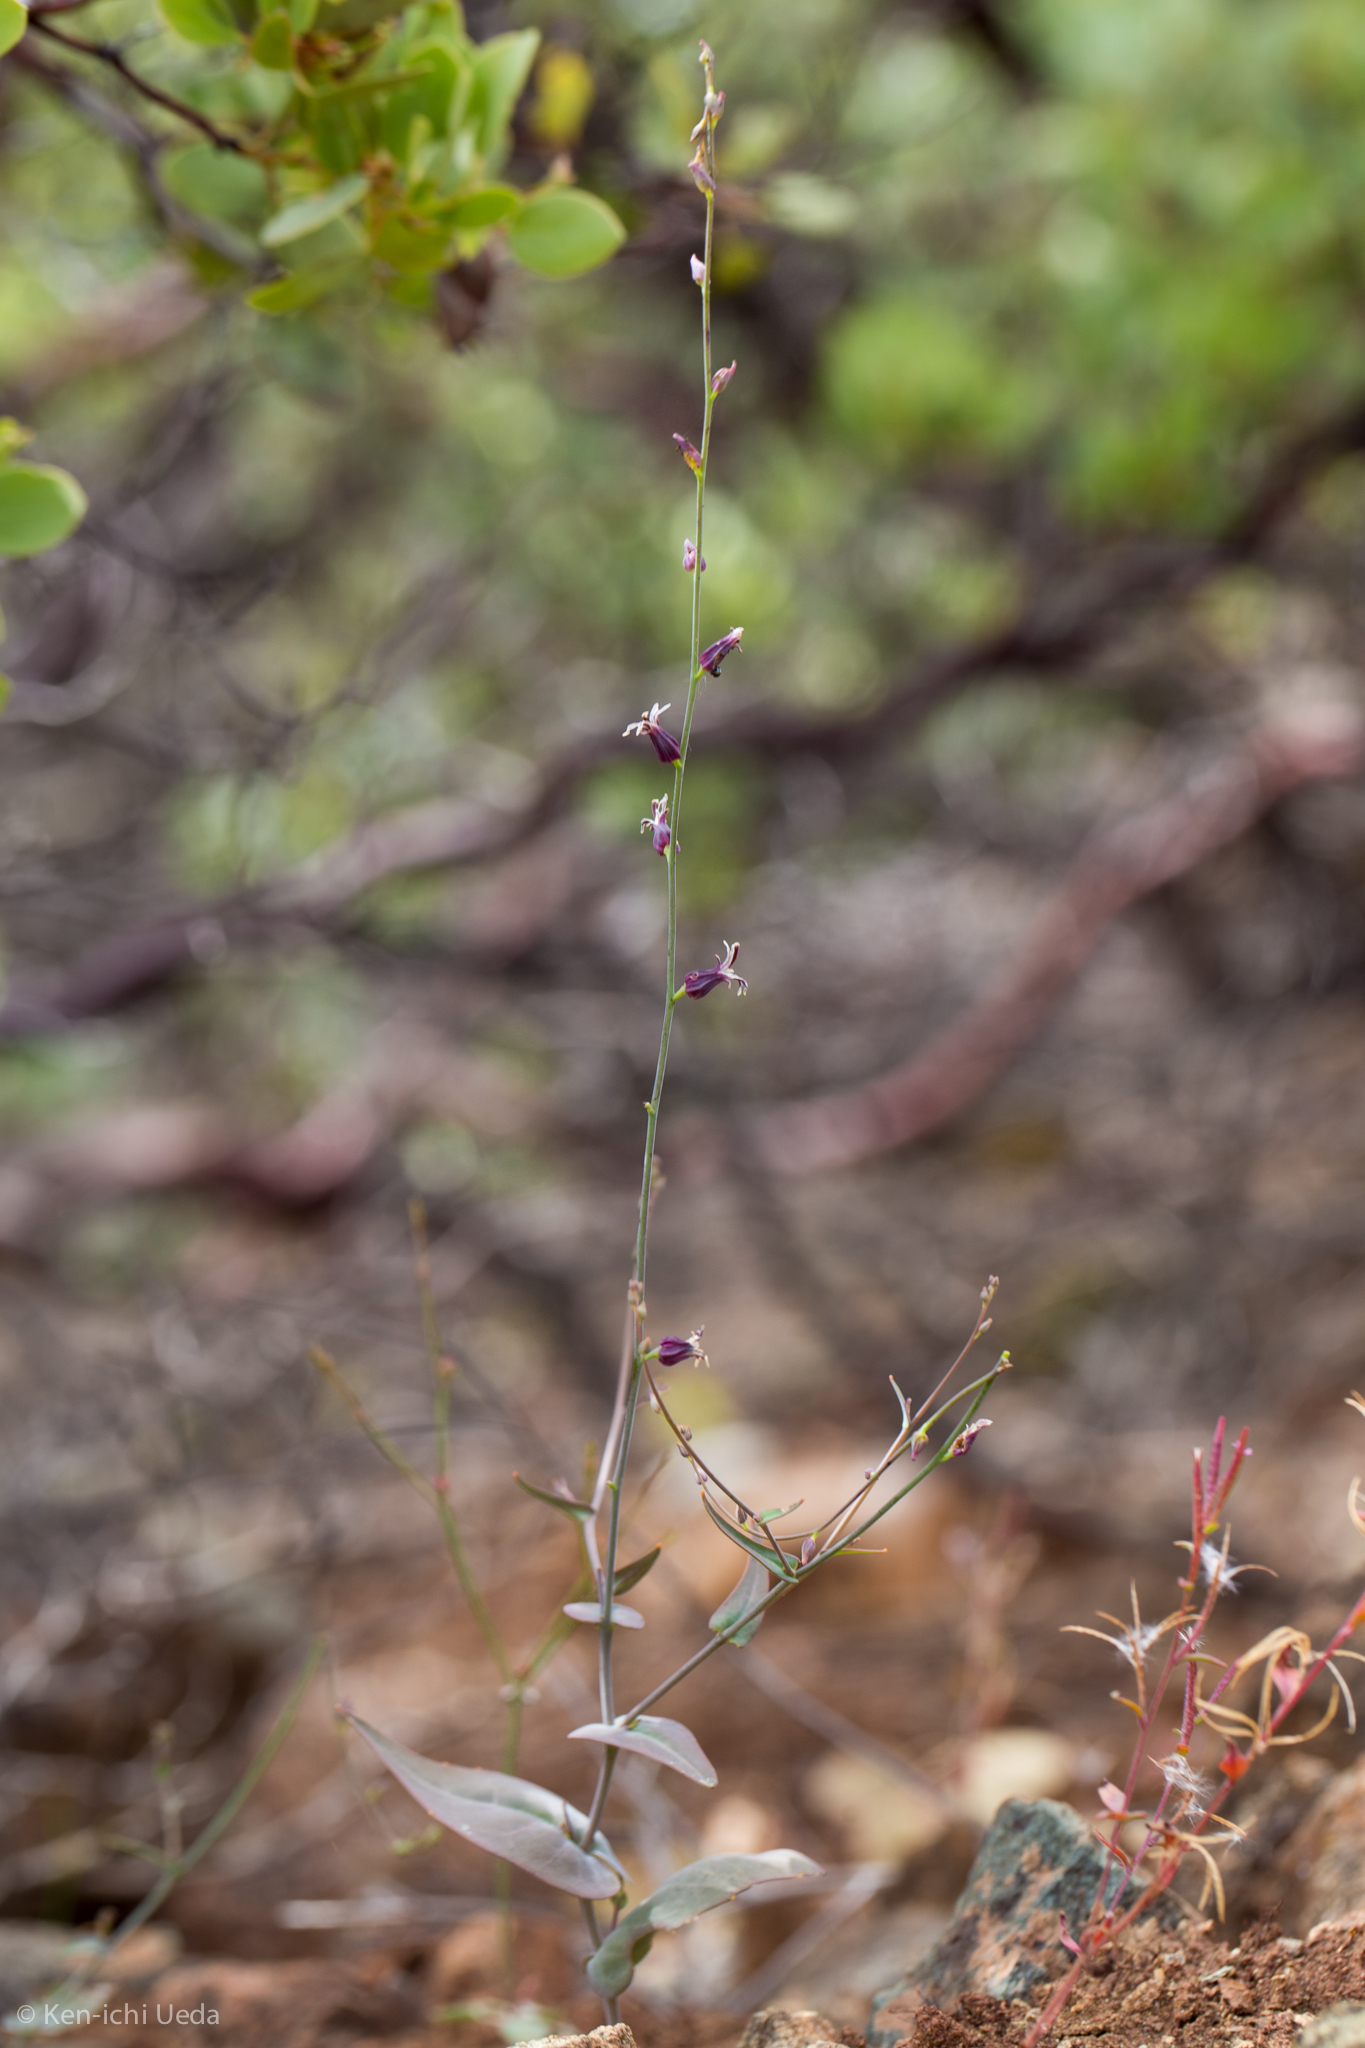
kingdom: Plantae
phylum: Tracheophyta
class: Magnoliopsida
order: Brassicales
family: Brassicaceae
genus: Streptanthus
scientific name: Streptanthus breweri
